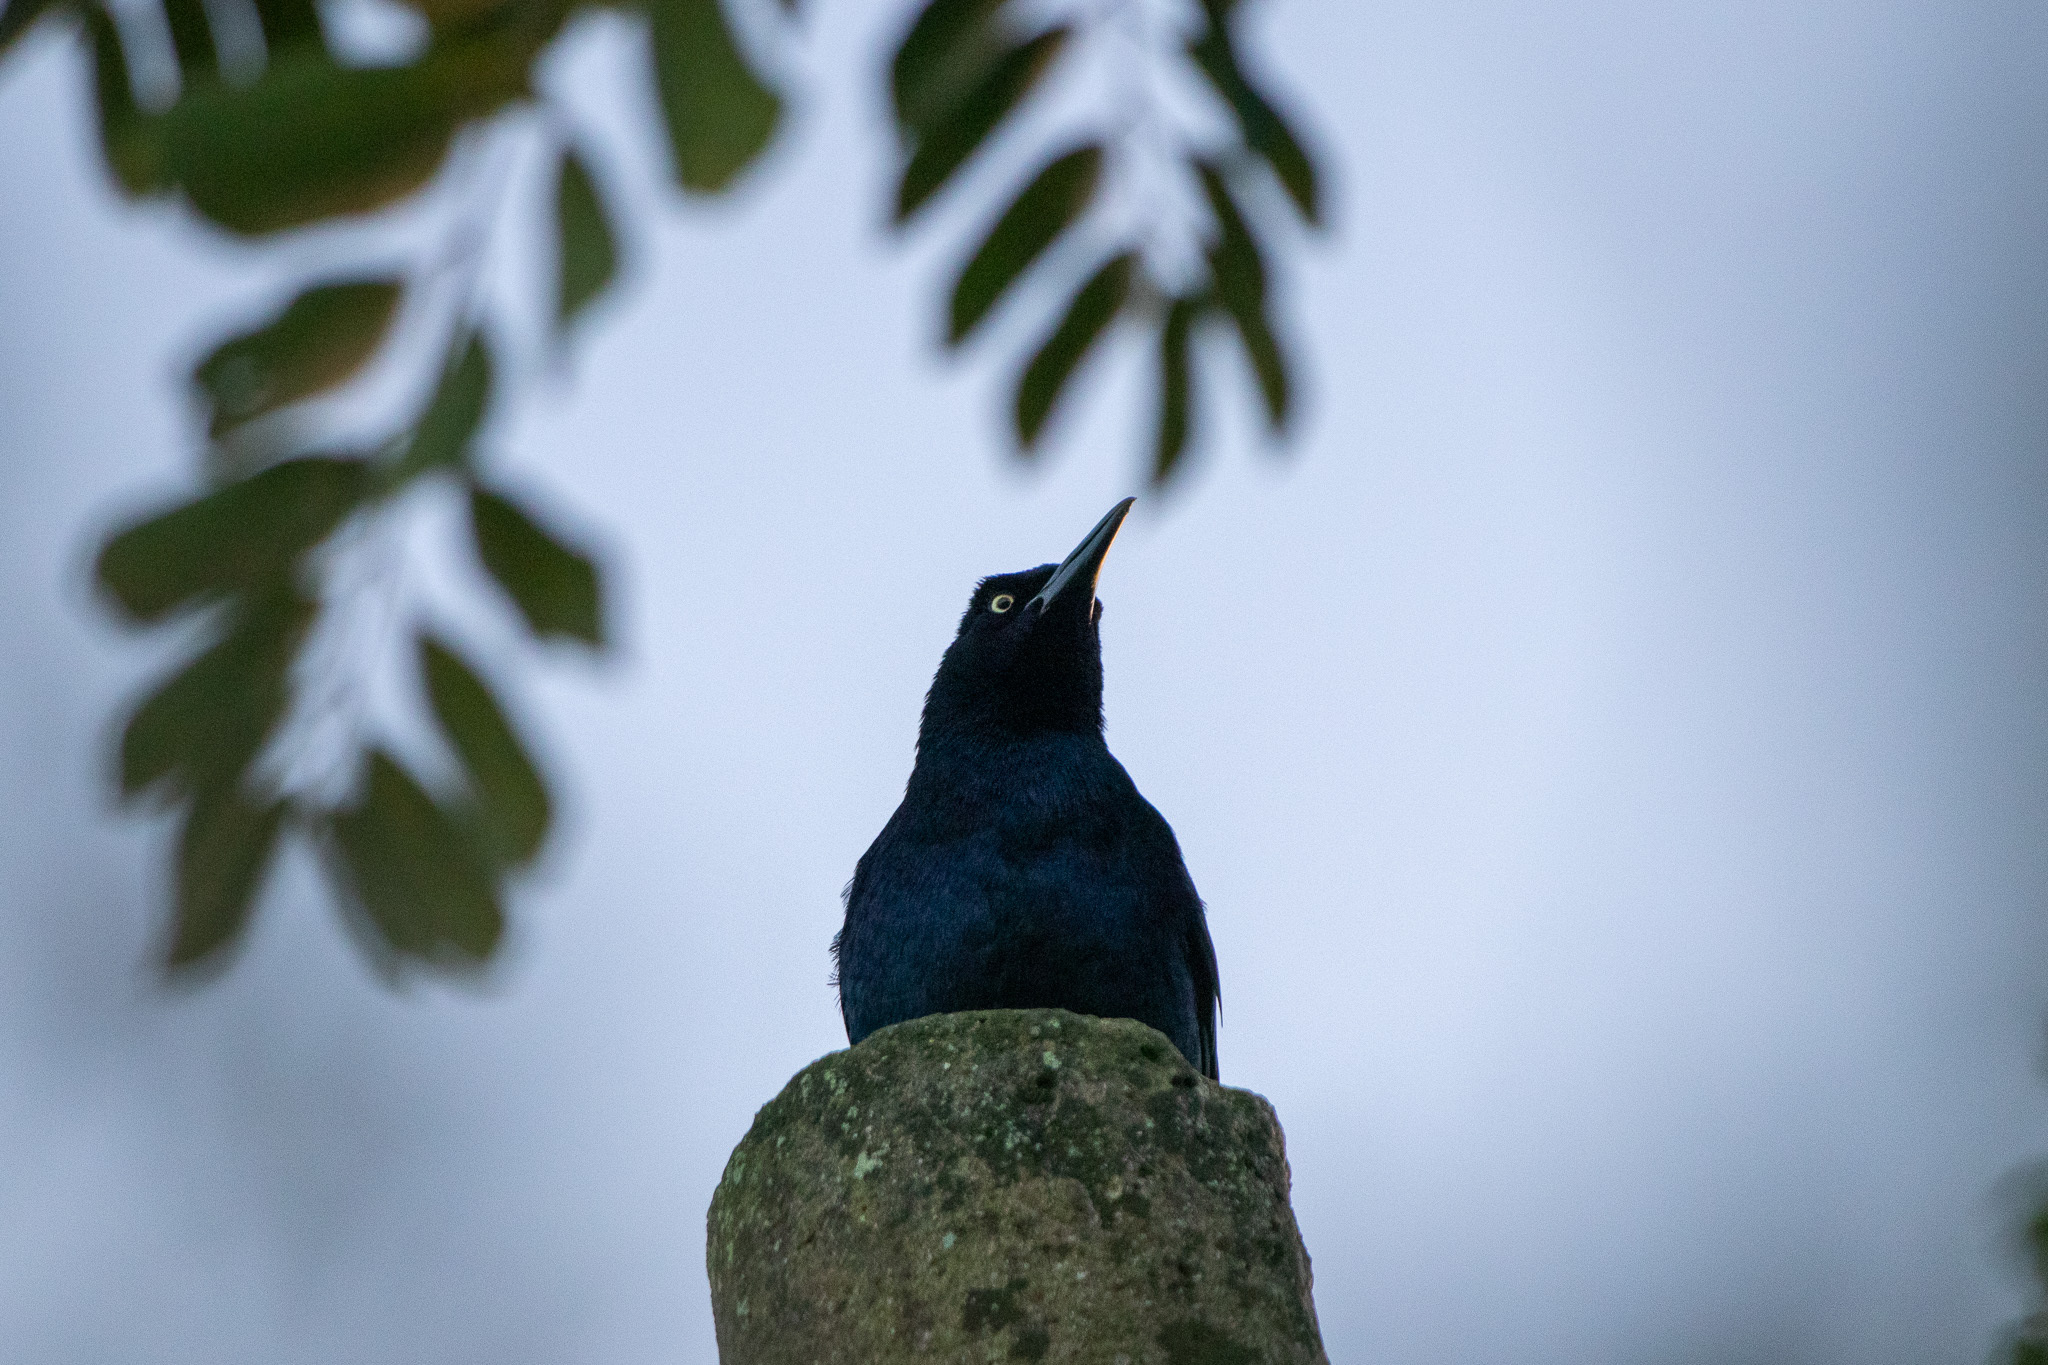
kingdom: Animalia
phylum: Chordata
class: Aves
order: Passeriformes
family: Icteridae
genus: Quiscalus
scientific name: Quiscalus mexicanus
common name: Great-tailed grackle
